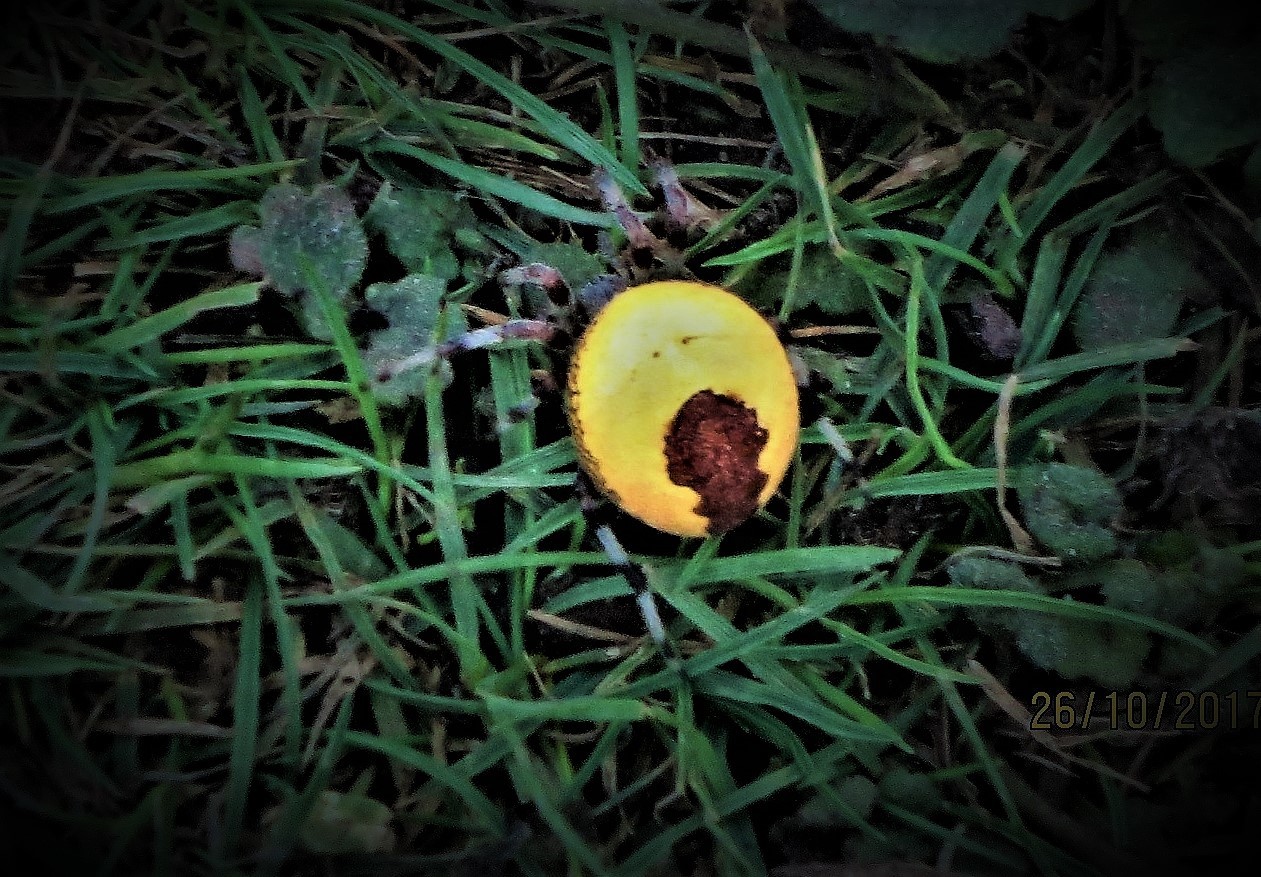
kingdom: Animalia
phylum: Arthropoda
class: Arachnida
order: Araneae
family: Araneidae
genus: Araneus
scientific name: Araneus marmoreus
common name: Marbled orbweaver
